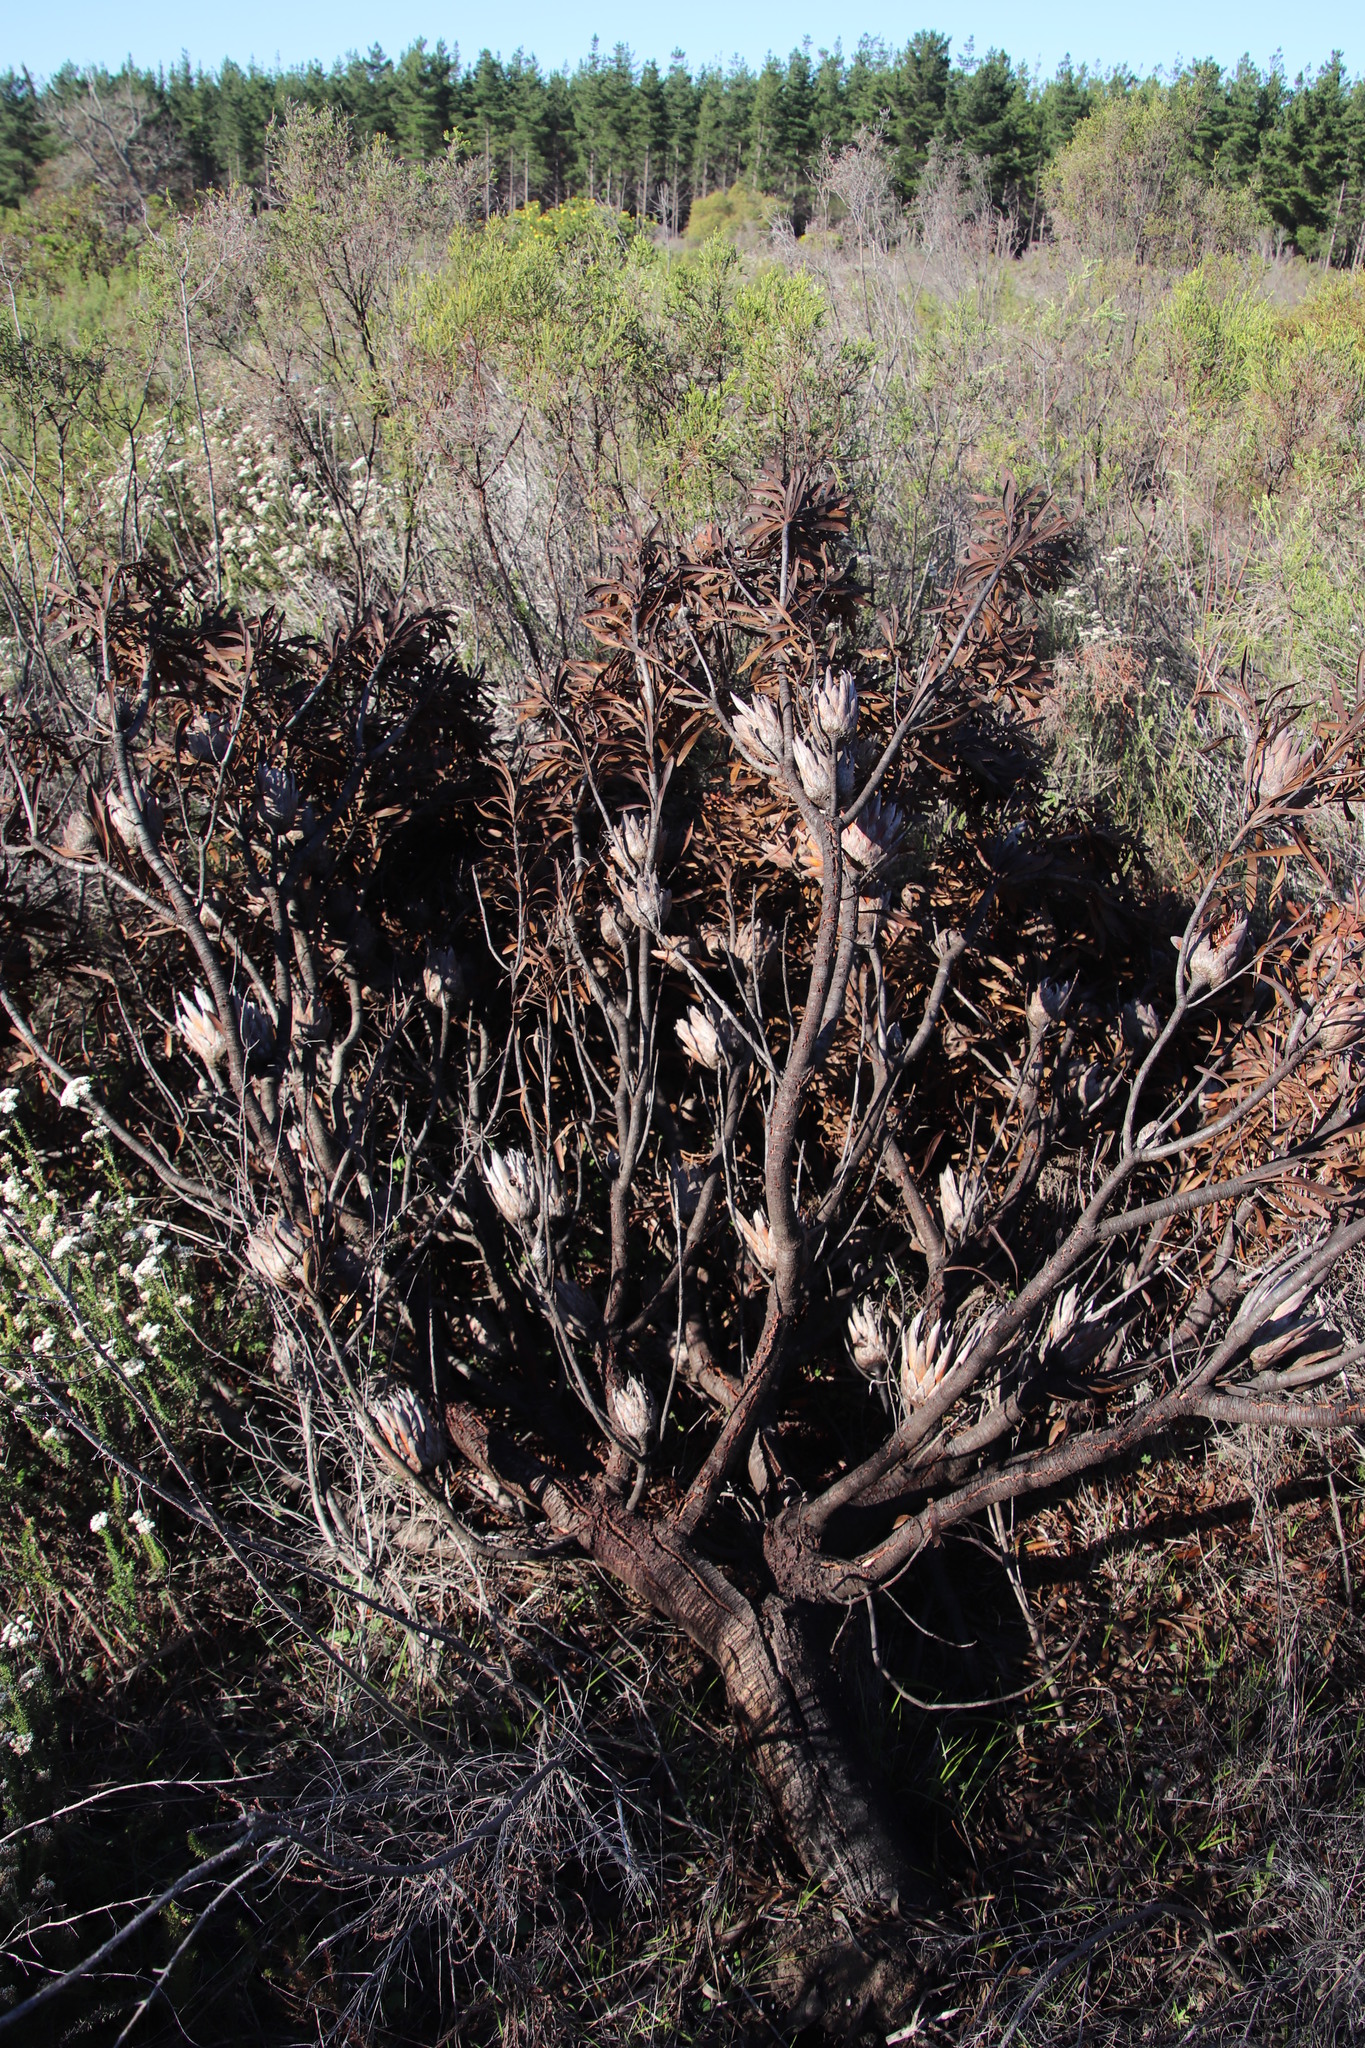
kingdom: Plantae
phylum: Tracheophyta
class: Magnoliopsida
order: Proteales
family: Proteaceae
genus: Protea
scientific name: Protea repens
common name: Sugarbush
